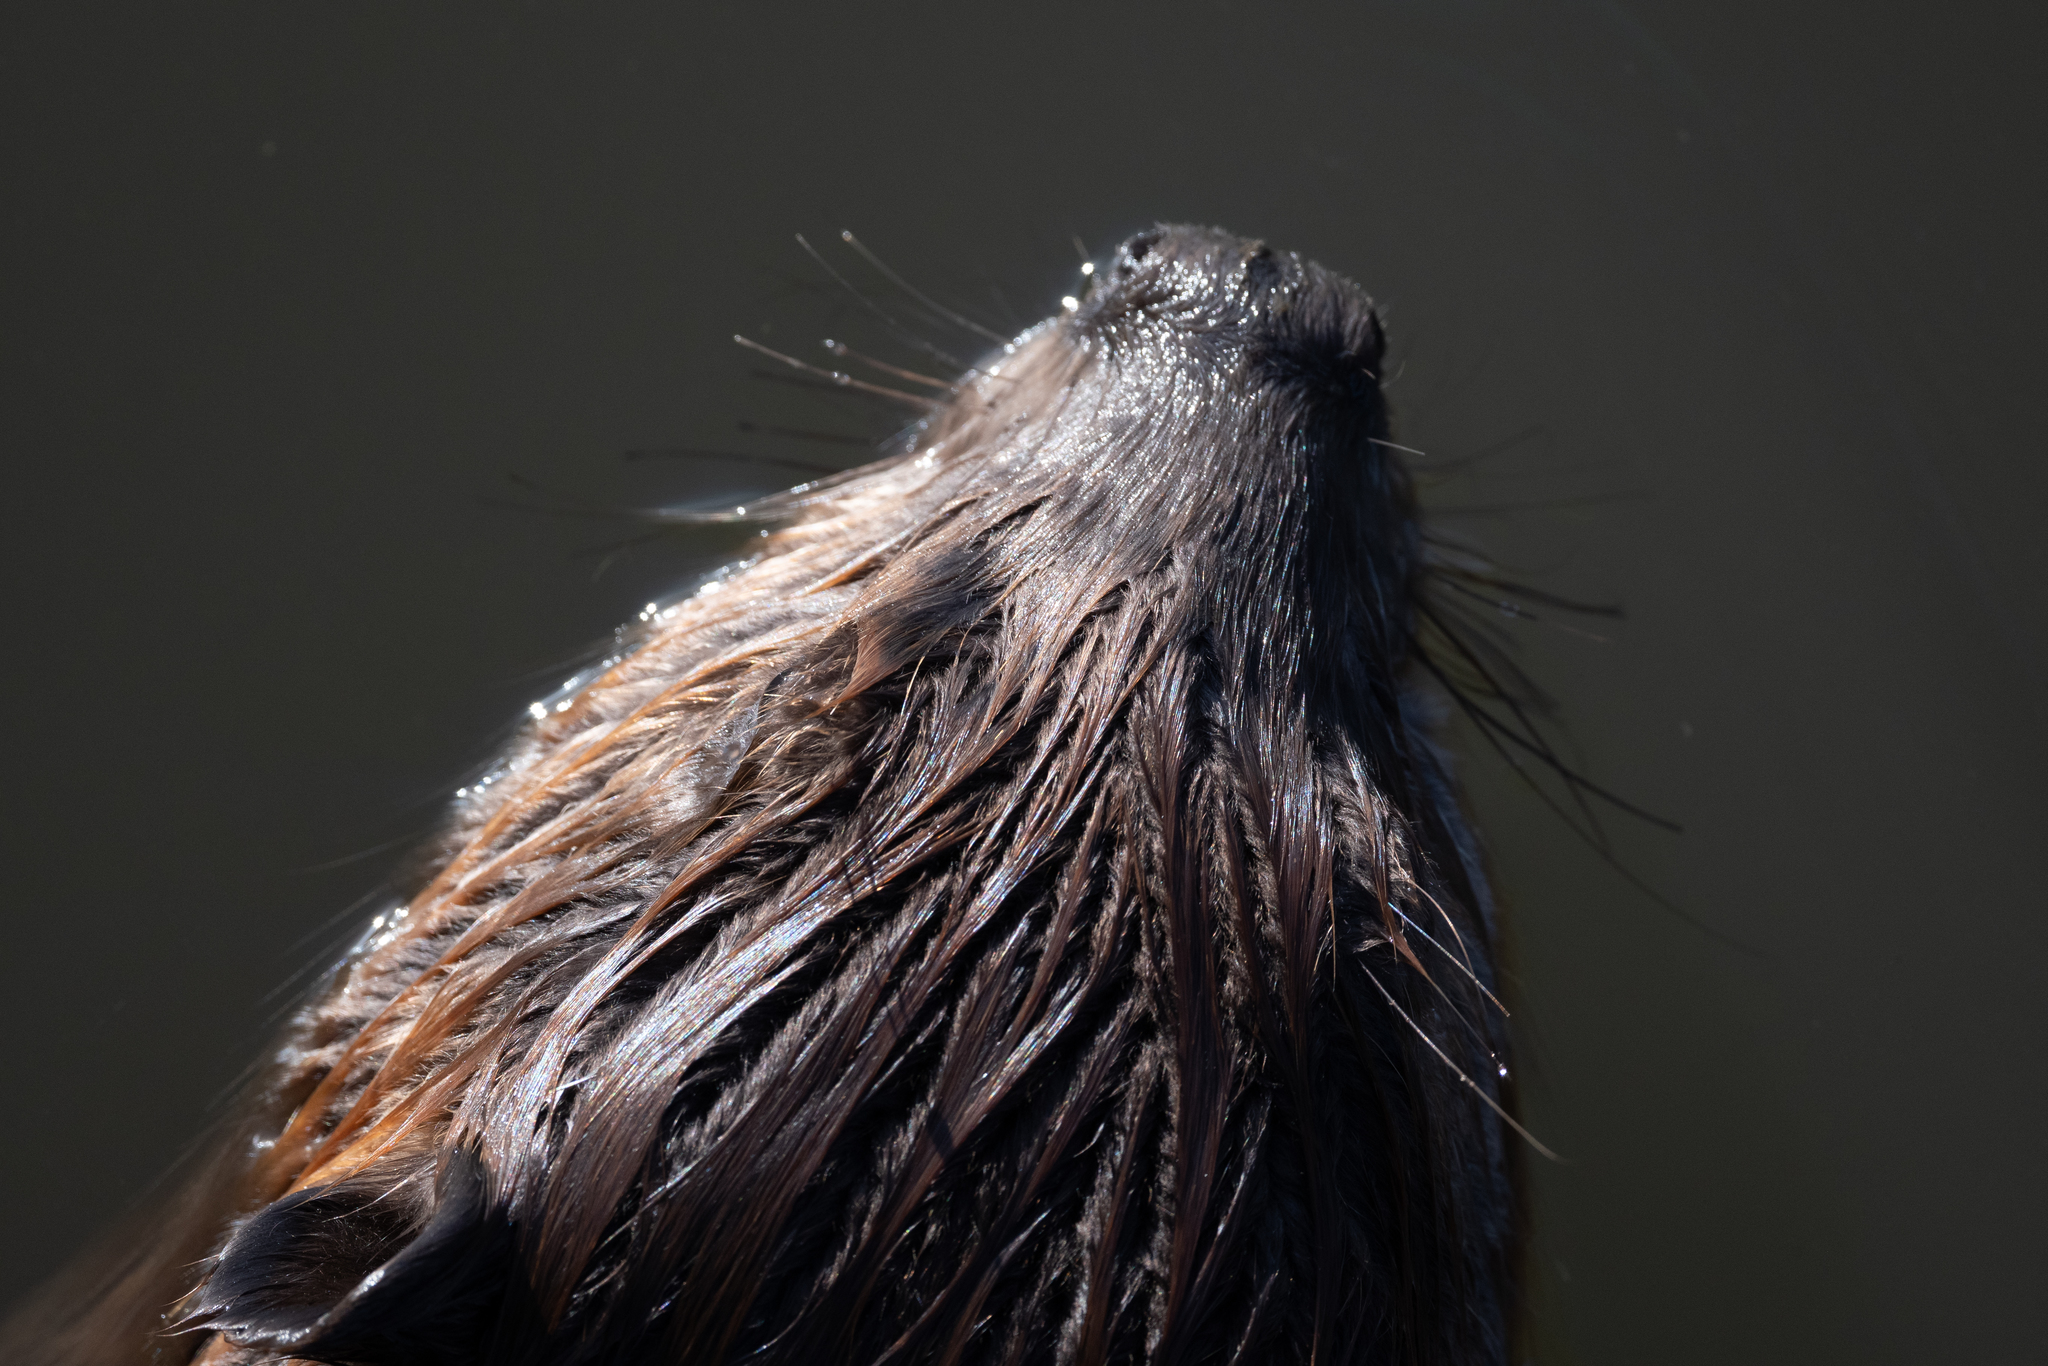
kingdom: Animalia
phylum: Chordata
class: Mammalia
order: Rodentia
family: Castoridae
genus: Castor
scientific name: Castor canadensis
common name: American beaver
